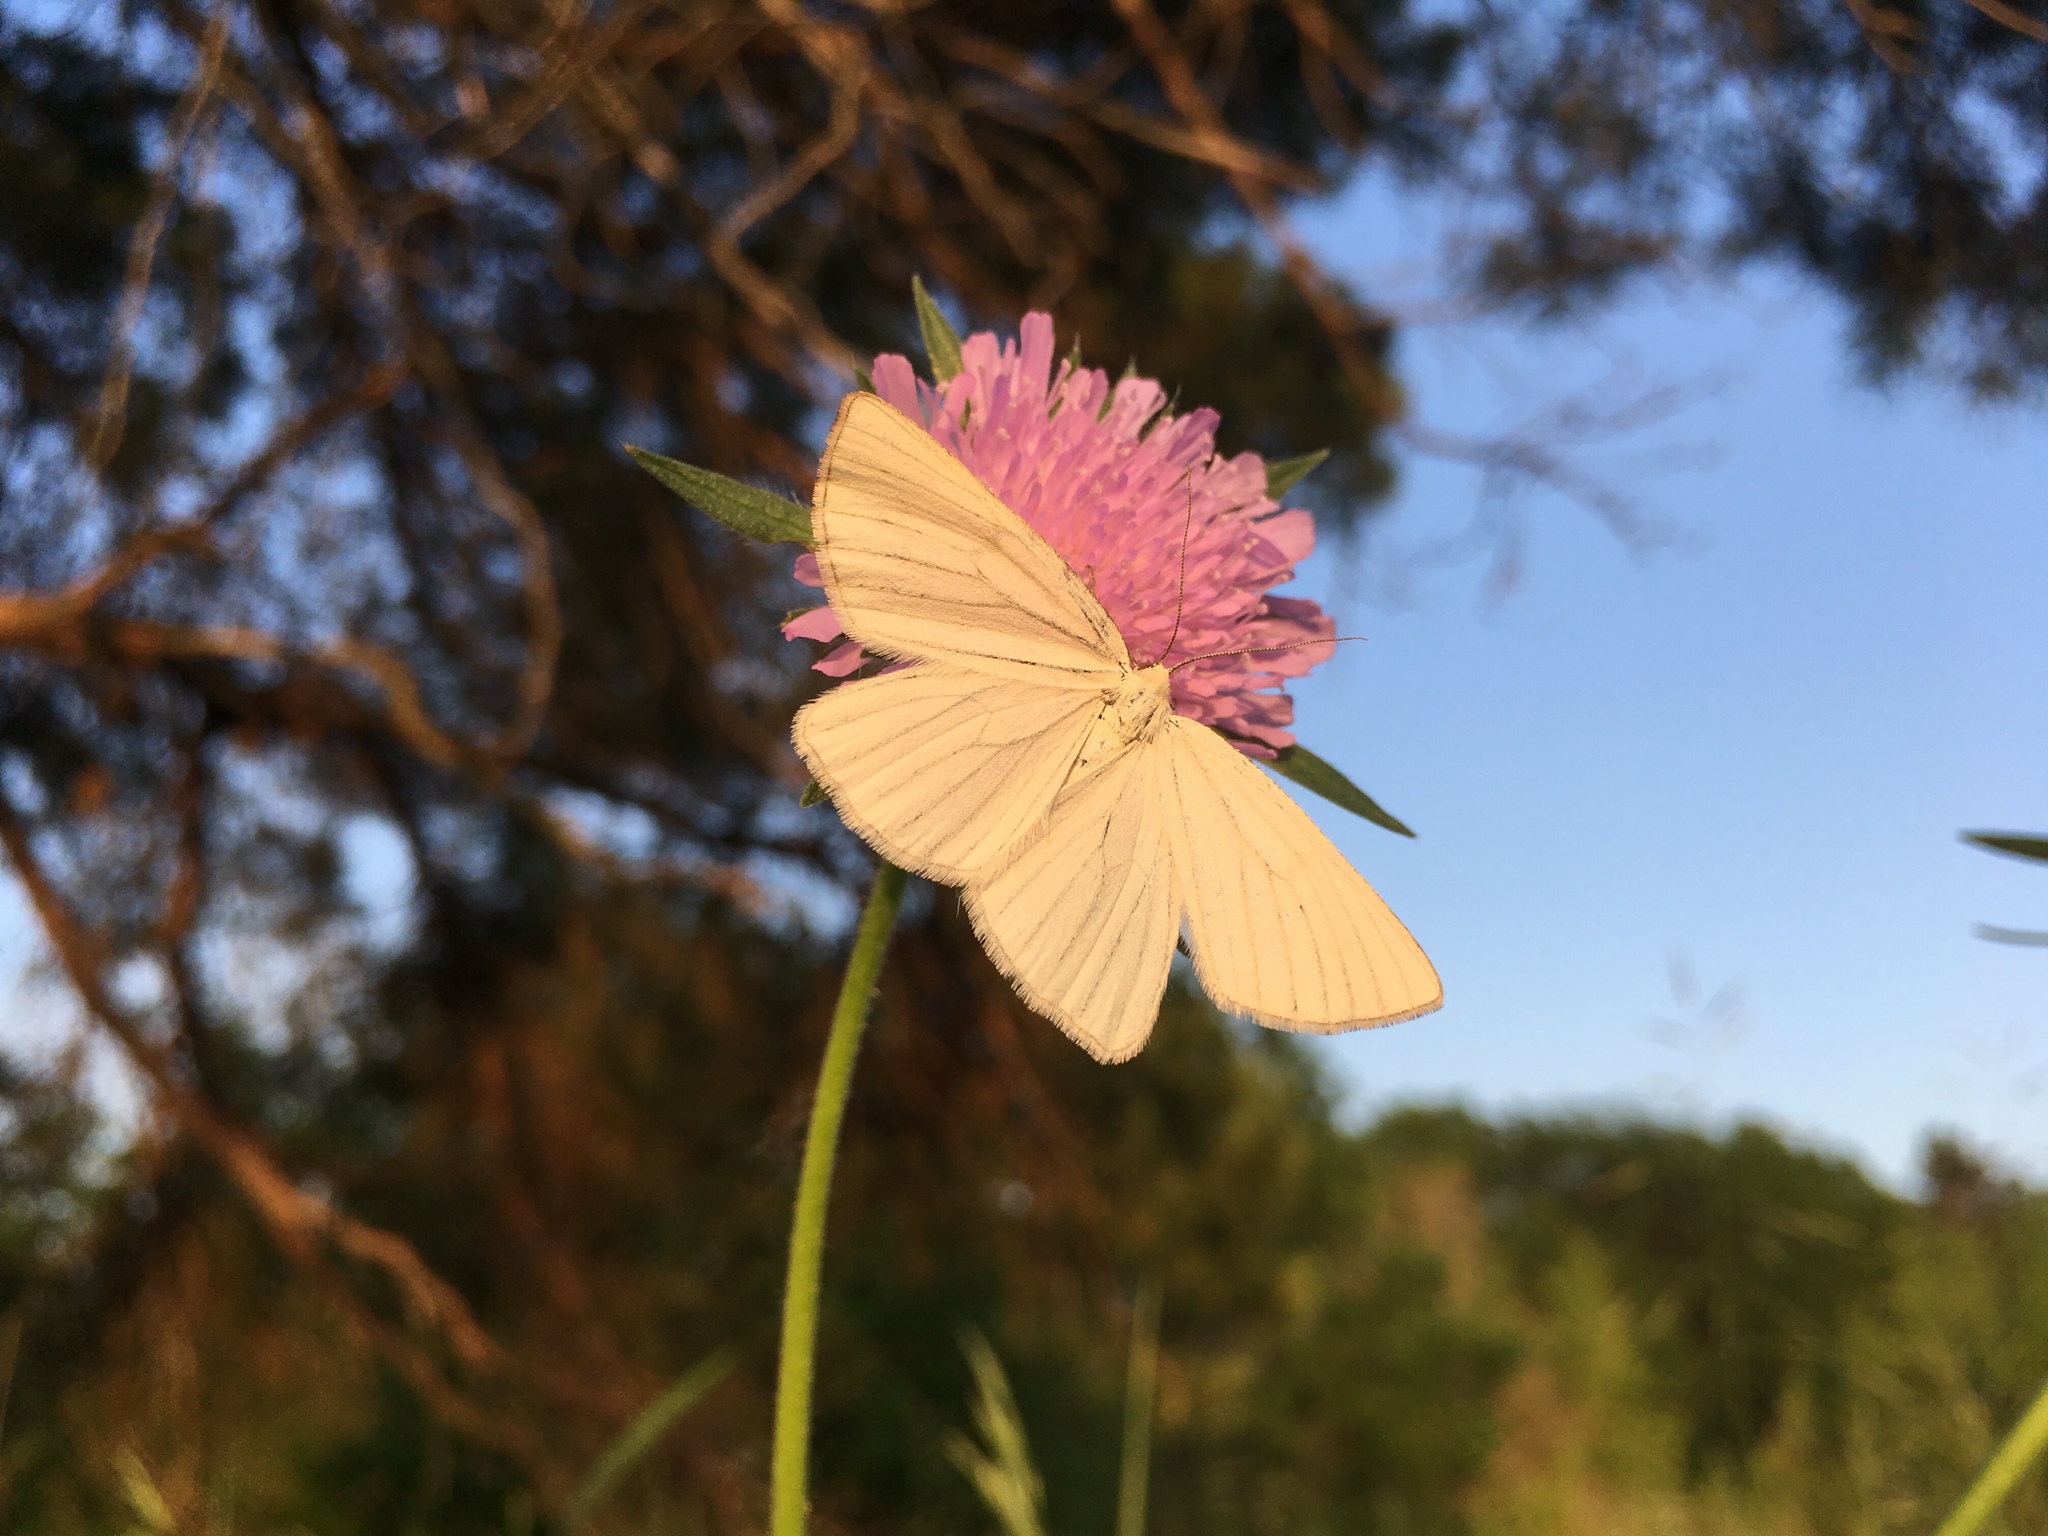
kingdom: Animalia
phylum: Arthropoda
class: Insecta
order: Lepidoptera
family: Geometridae
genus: Siona
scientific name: Siona lineata
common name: Black-veined moth
